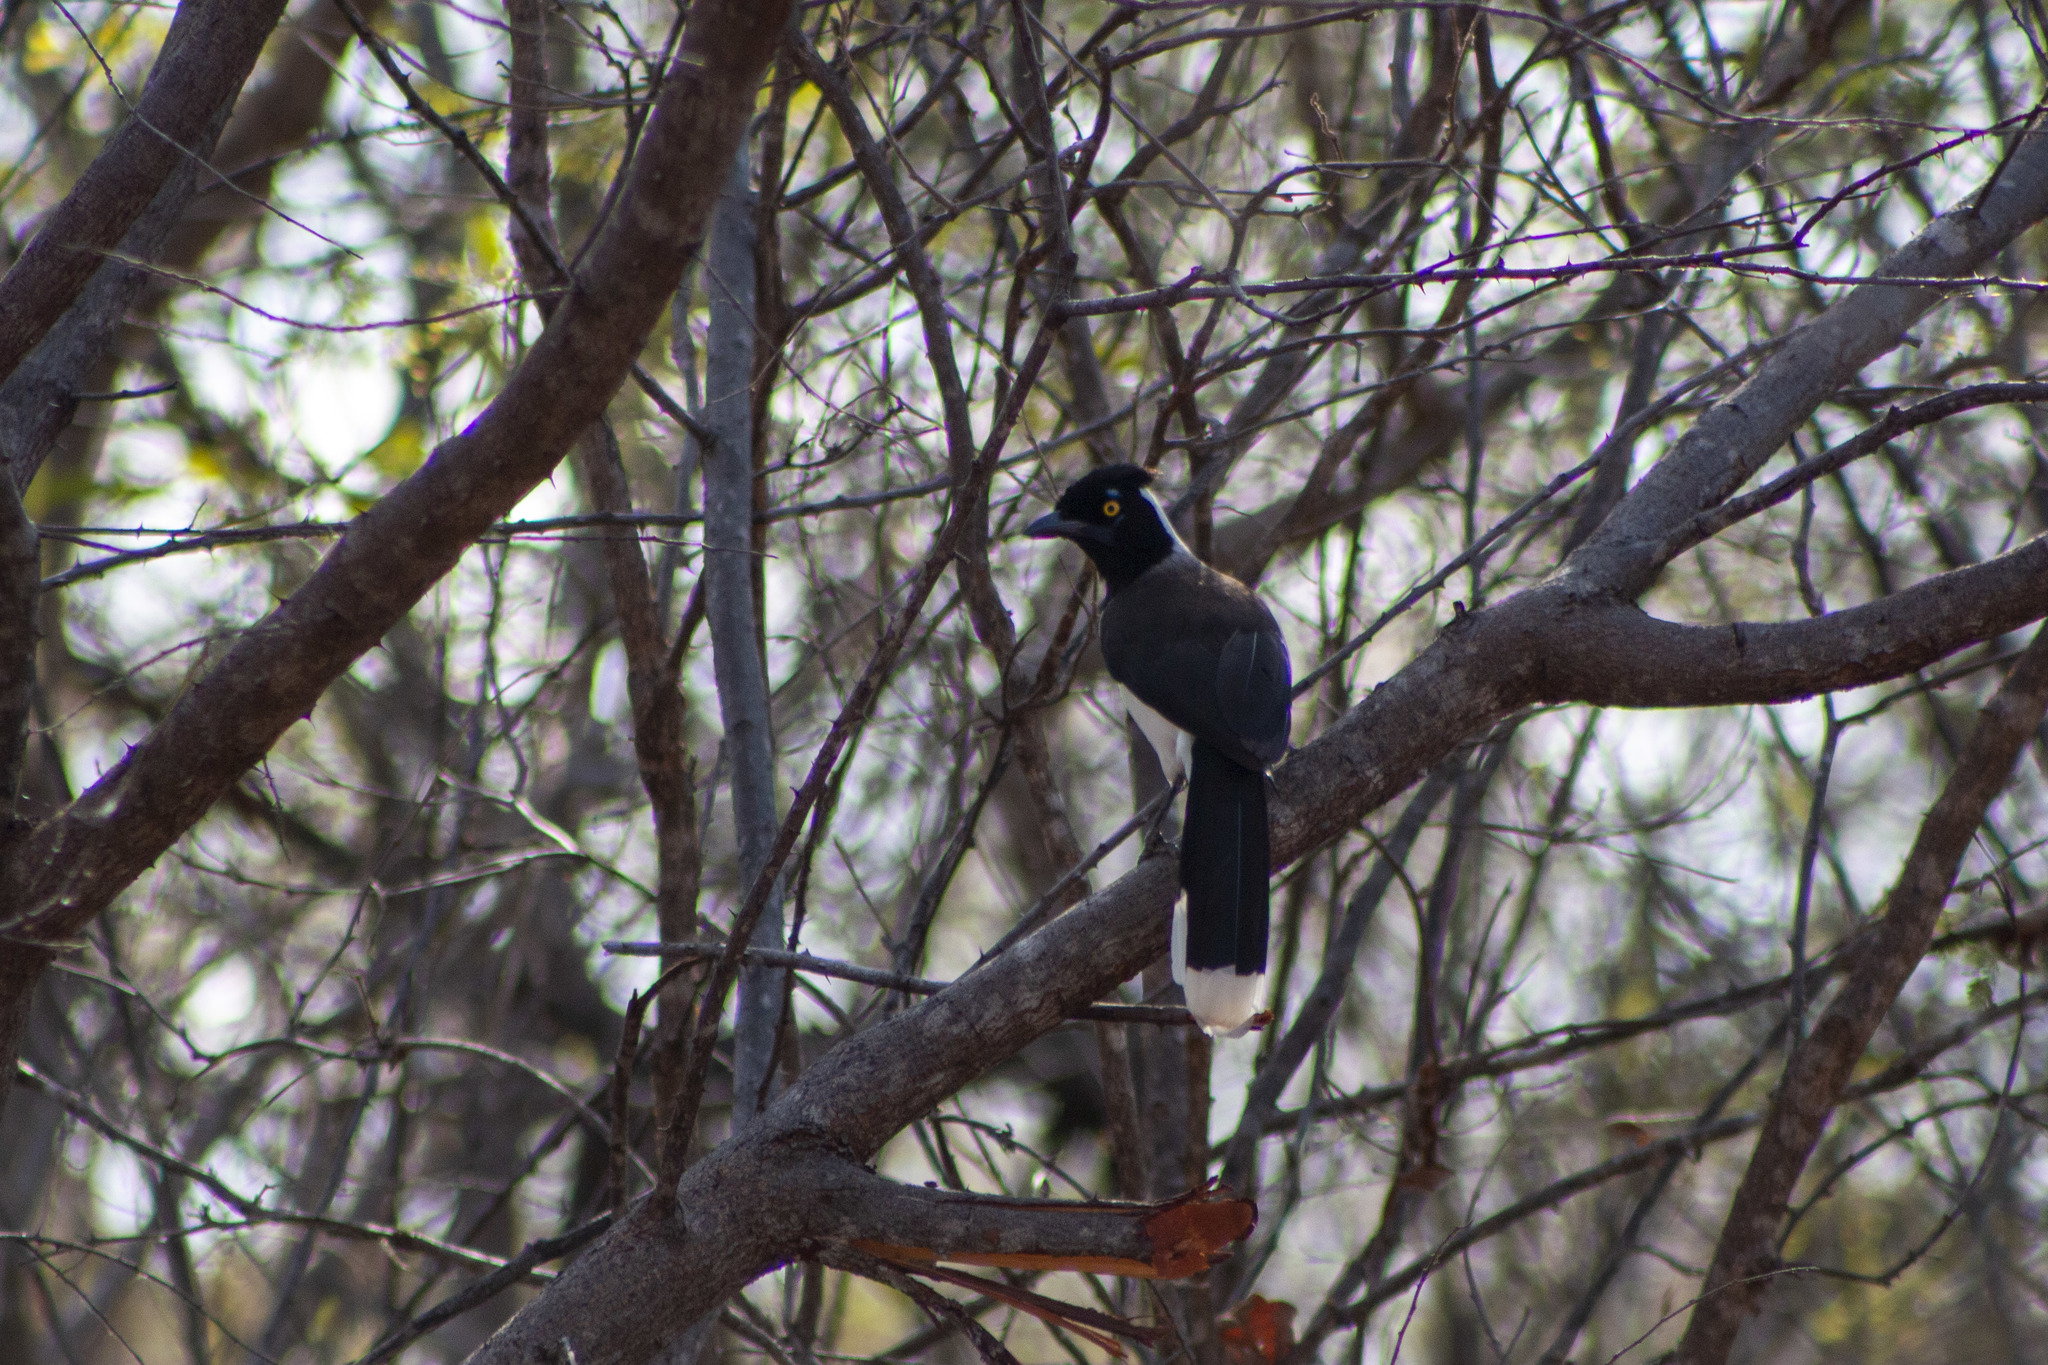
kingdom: Animalia
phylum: Chordata
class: Aves
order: Passeriformes
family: Corvidae
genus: Cyanocorax
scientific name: Cyanocorax cyanopogon
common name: White-naped jay
